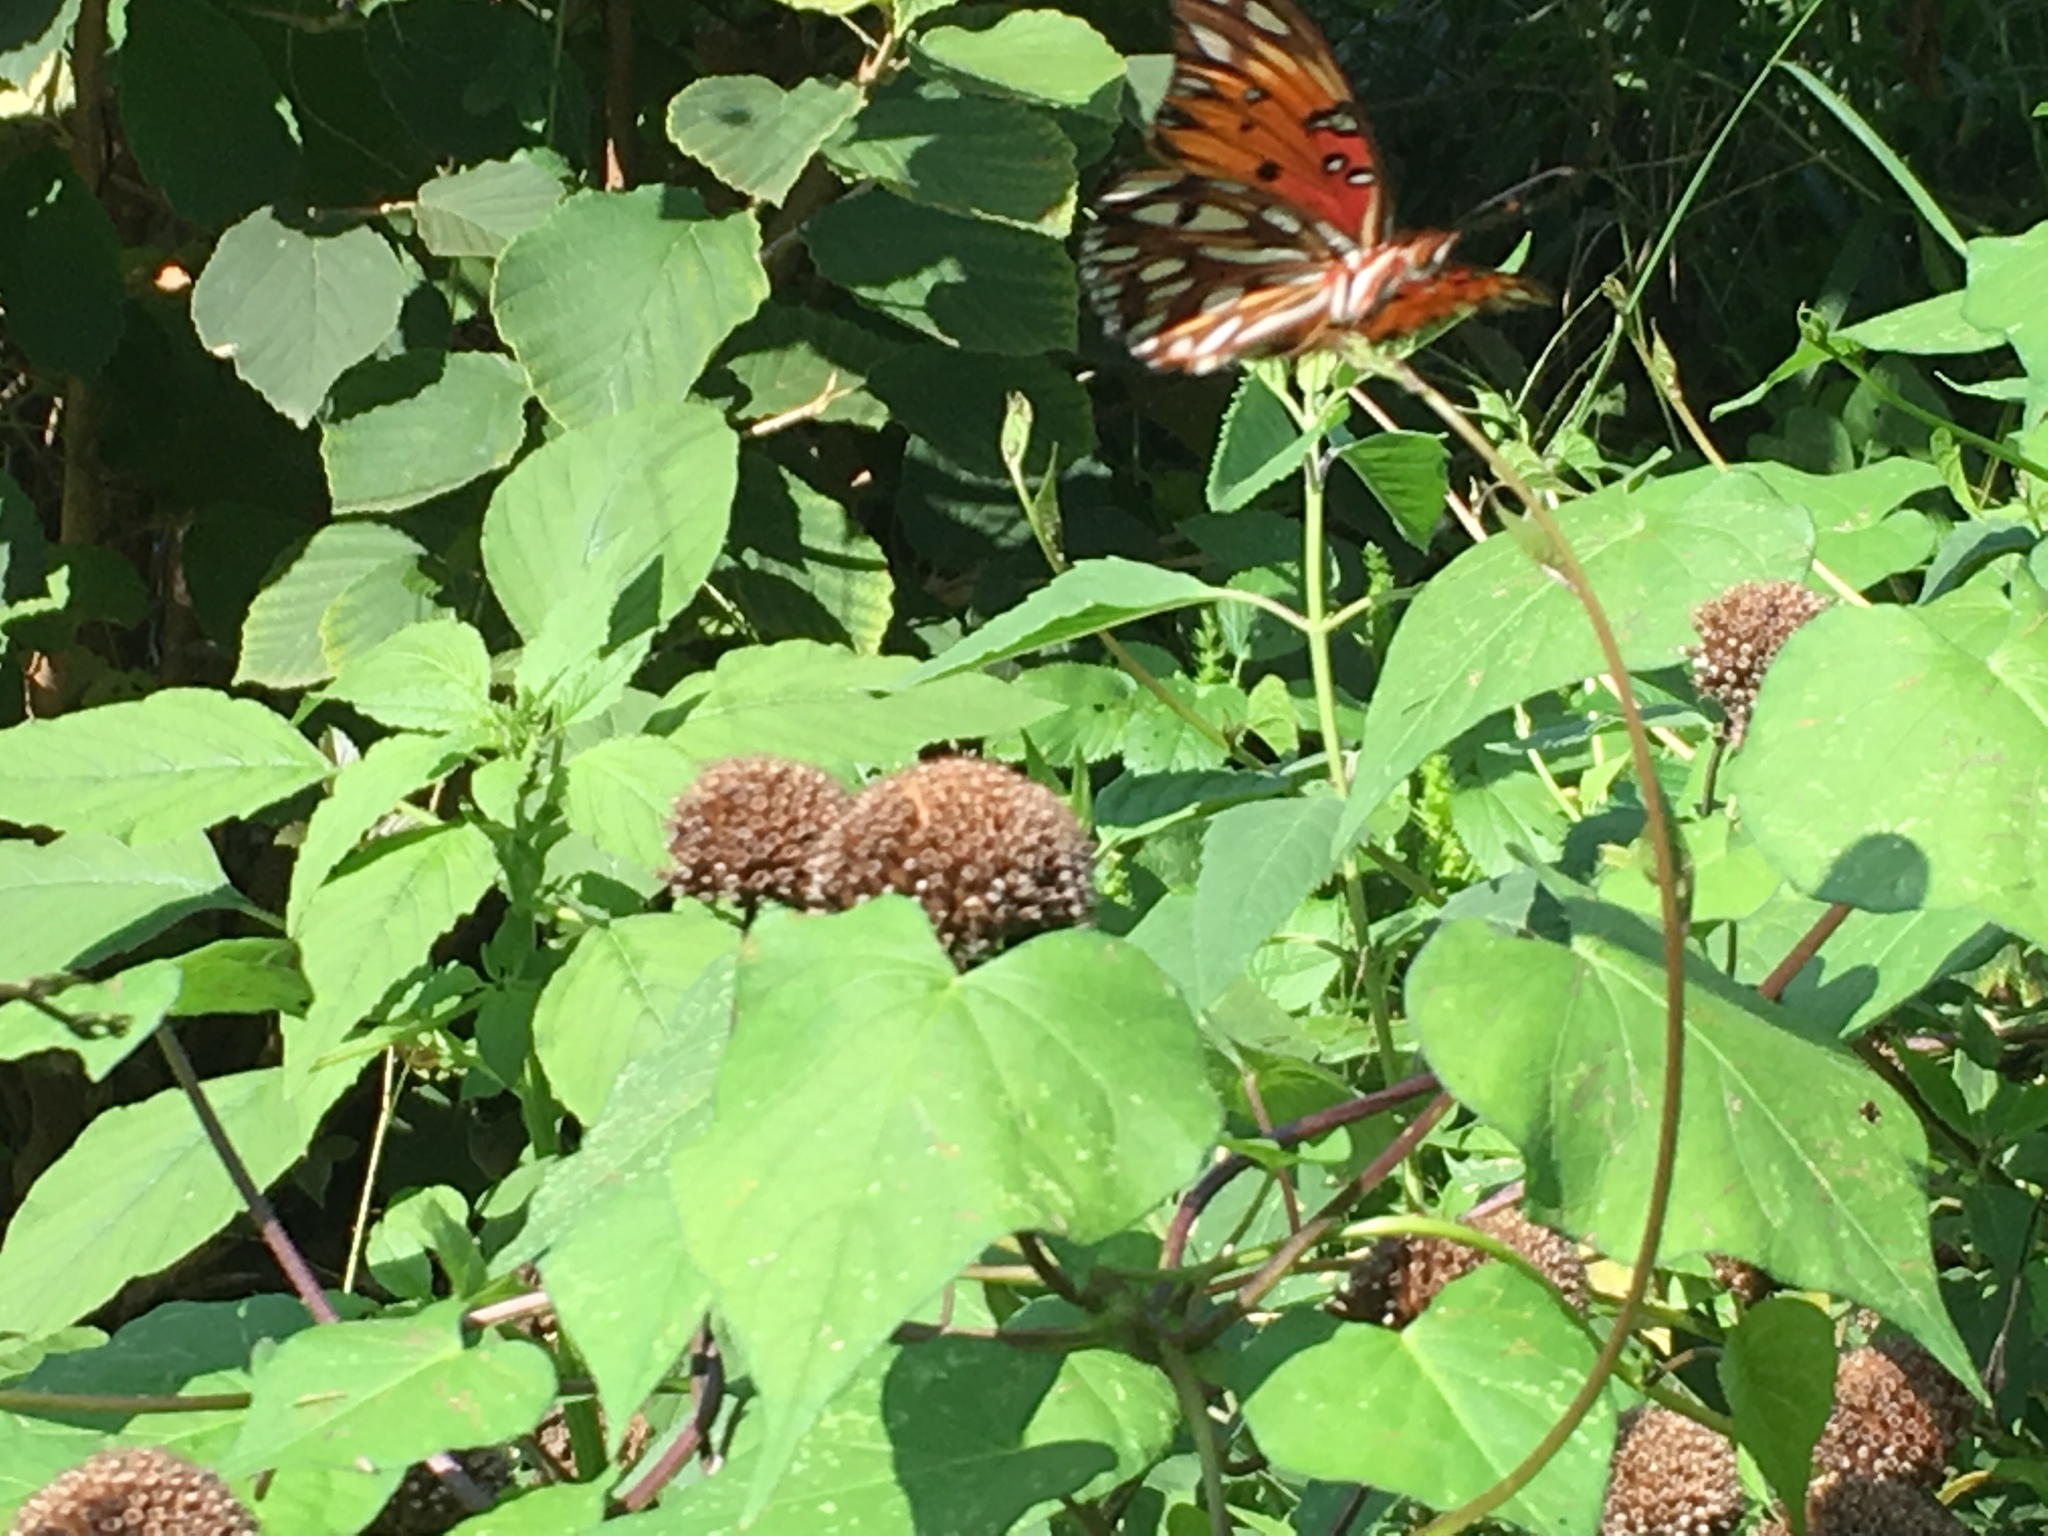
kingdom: Animalia
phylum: Arthropoda
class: Insecta
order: Lepidoptera
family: Nymphalidae
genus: Dione
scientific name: Dione vanillae
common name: Gulf fritillary
